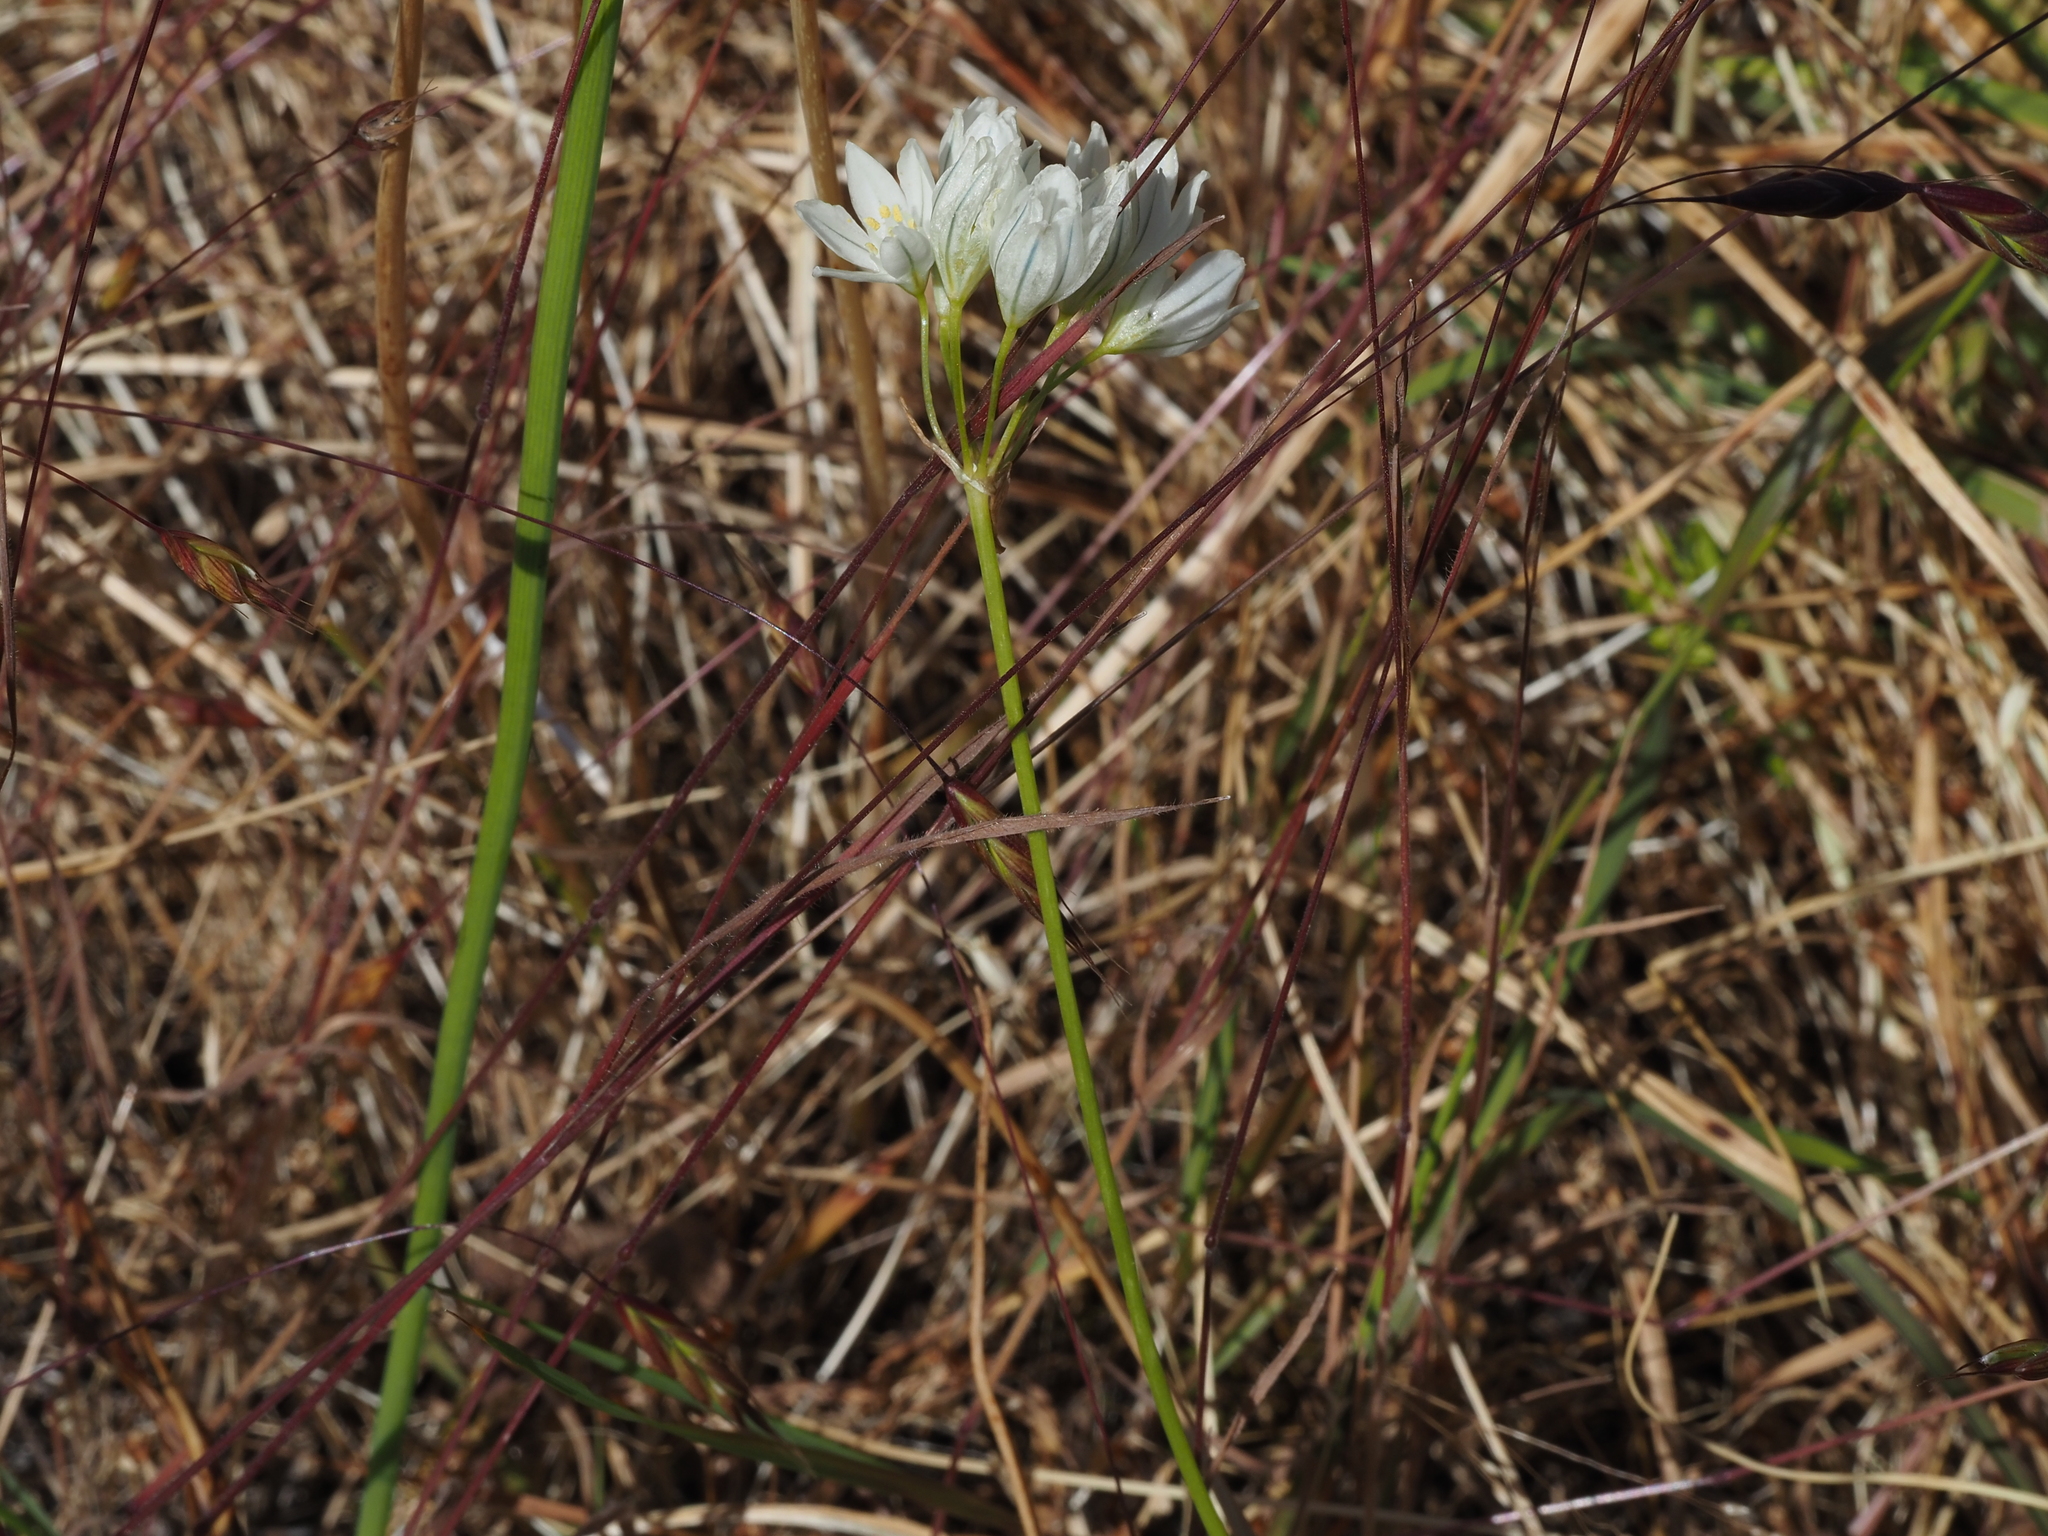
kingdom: Plantae
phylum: Tracheophyta
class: Liliopsida
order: Asparagales
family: Asparagaceae
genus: Triteleia
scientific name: Triteleia hyacinthina
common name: White brodiaea
